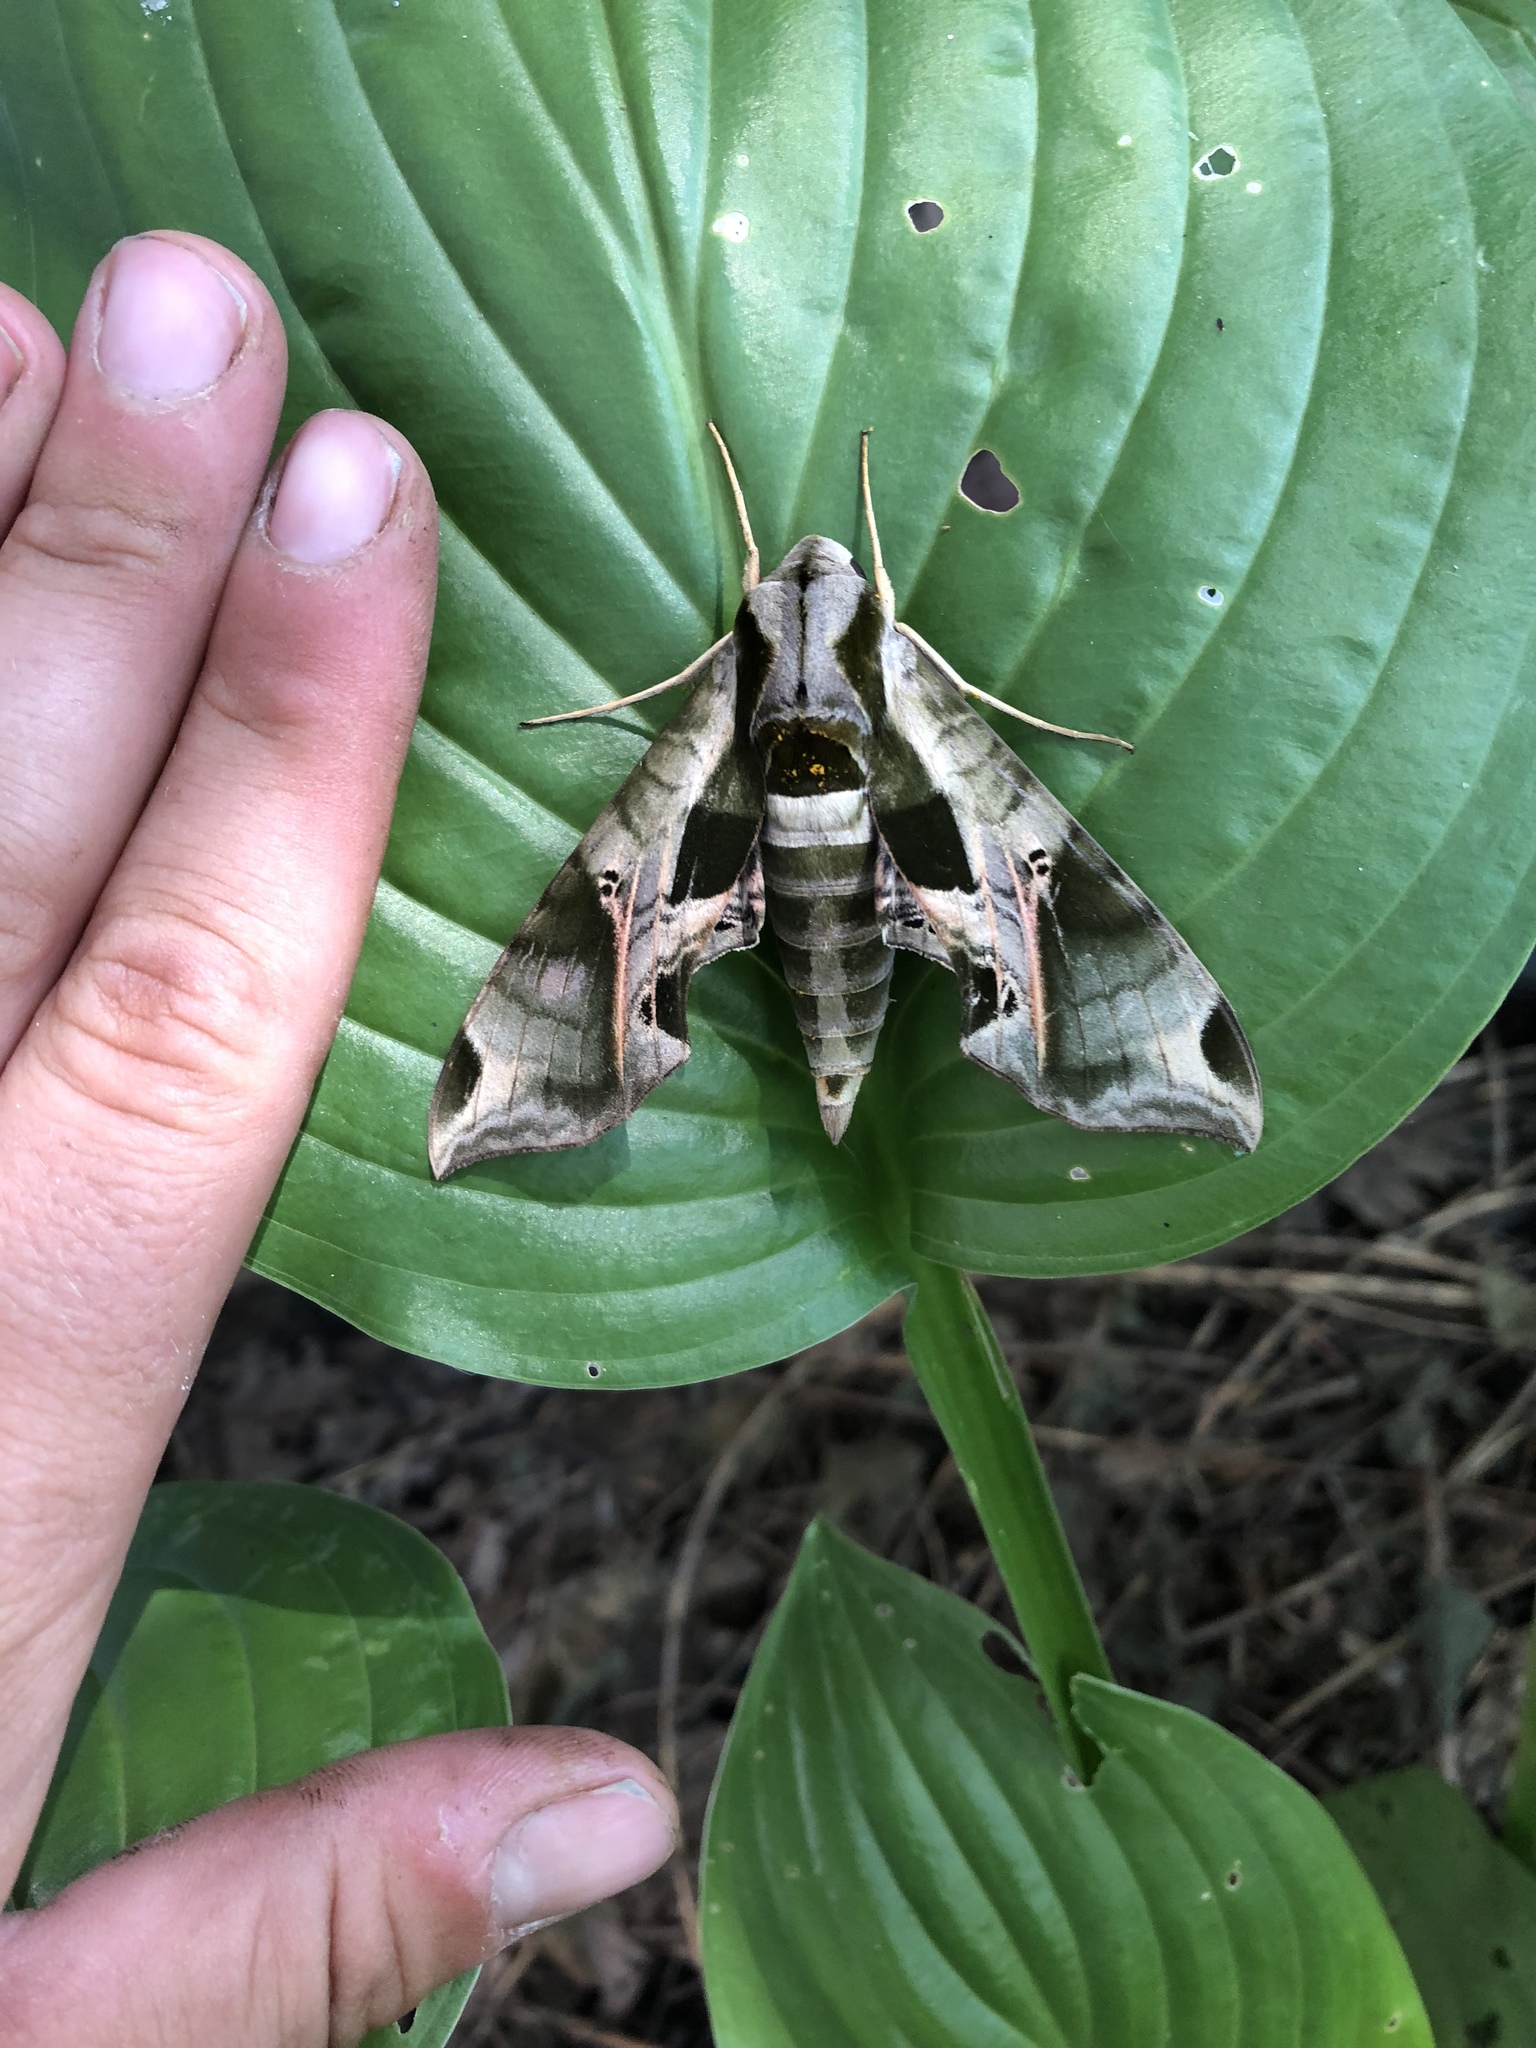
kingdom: Animalia
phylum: Arthropoda
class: Insecta
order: Lepidoptera
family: Sphingidae
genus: Eumorpha
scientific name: Eumorpha pandorus
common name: Pandora sphinx
